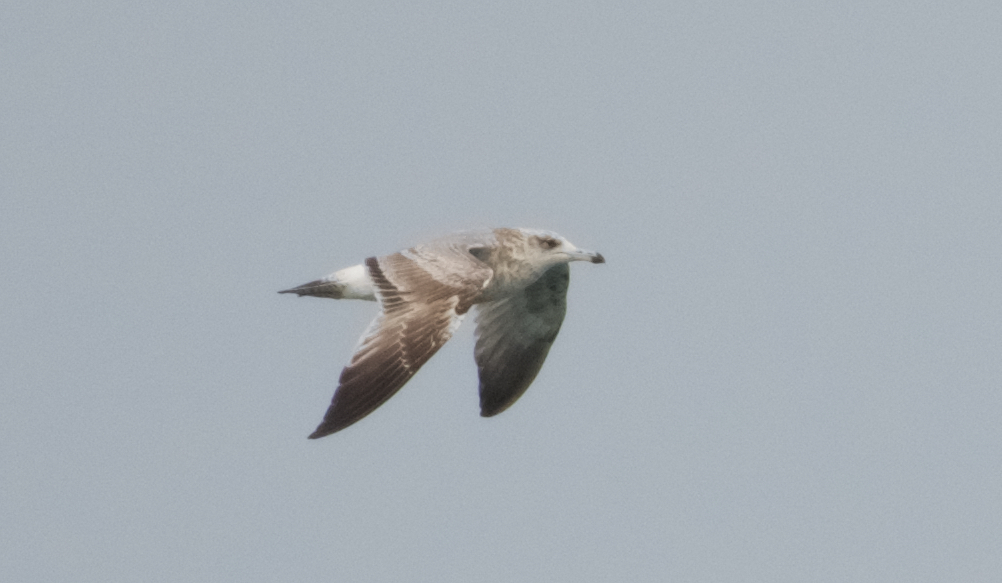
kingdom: Animalia
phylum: Chordata
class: Aves
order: Charadriiformes
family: Laridae
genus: Larus
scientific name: Larus californicus
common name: California gull
